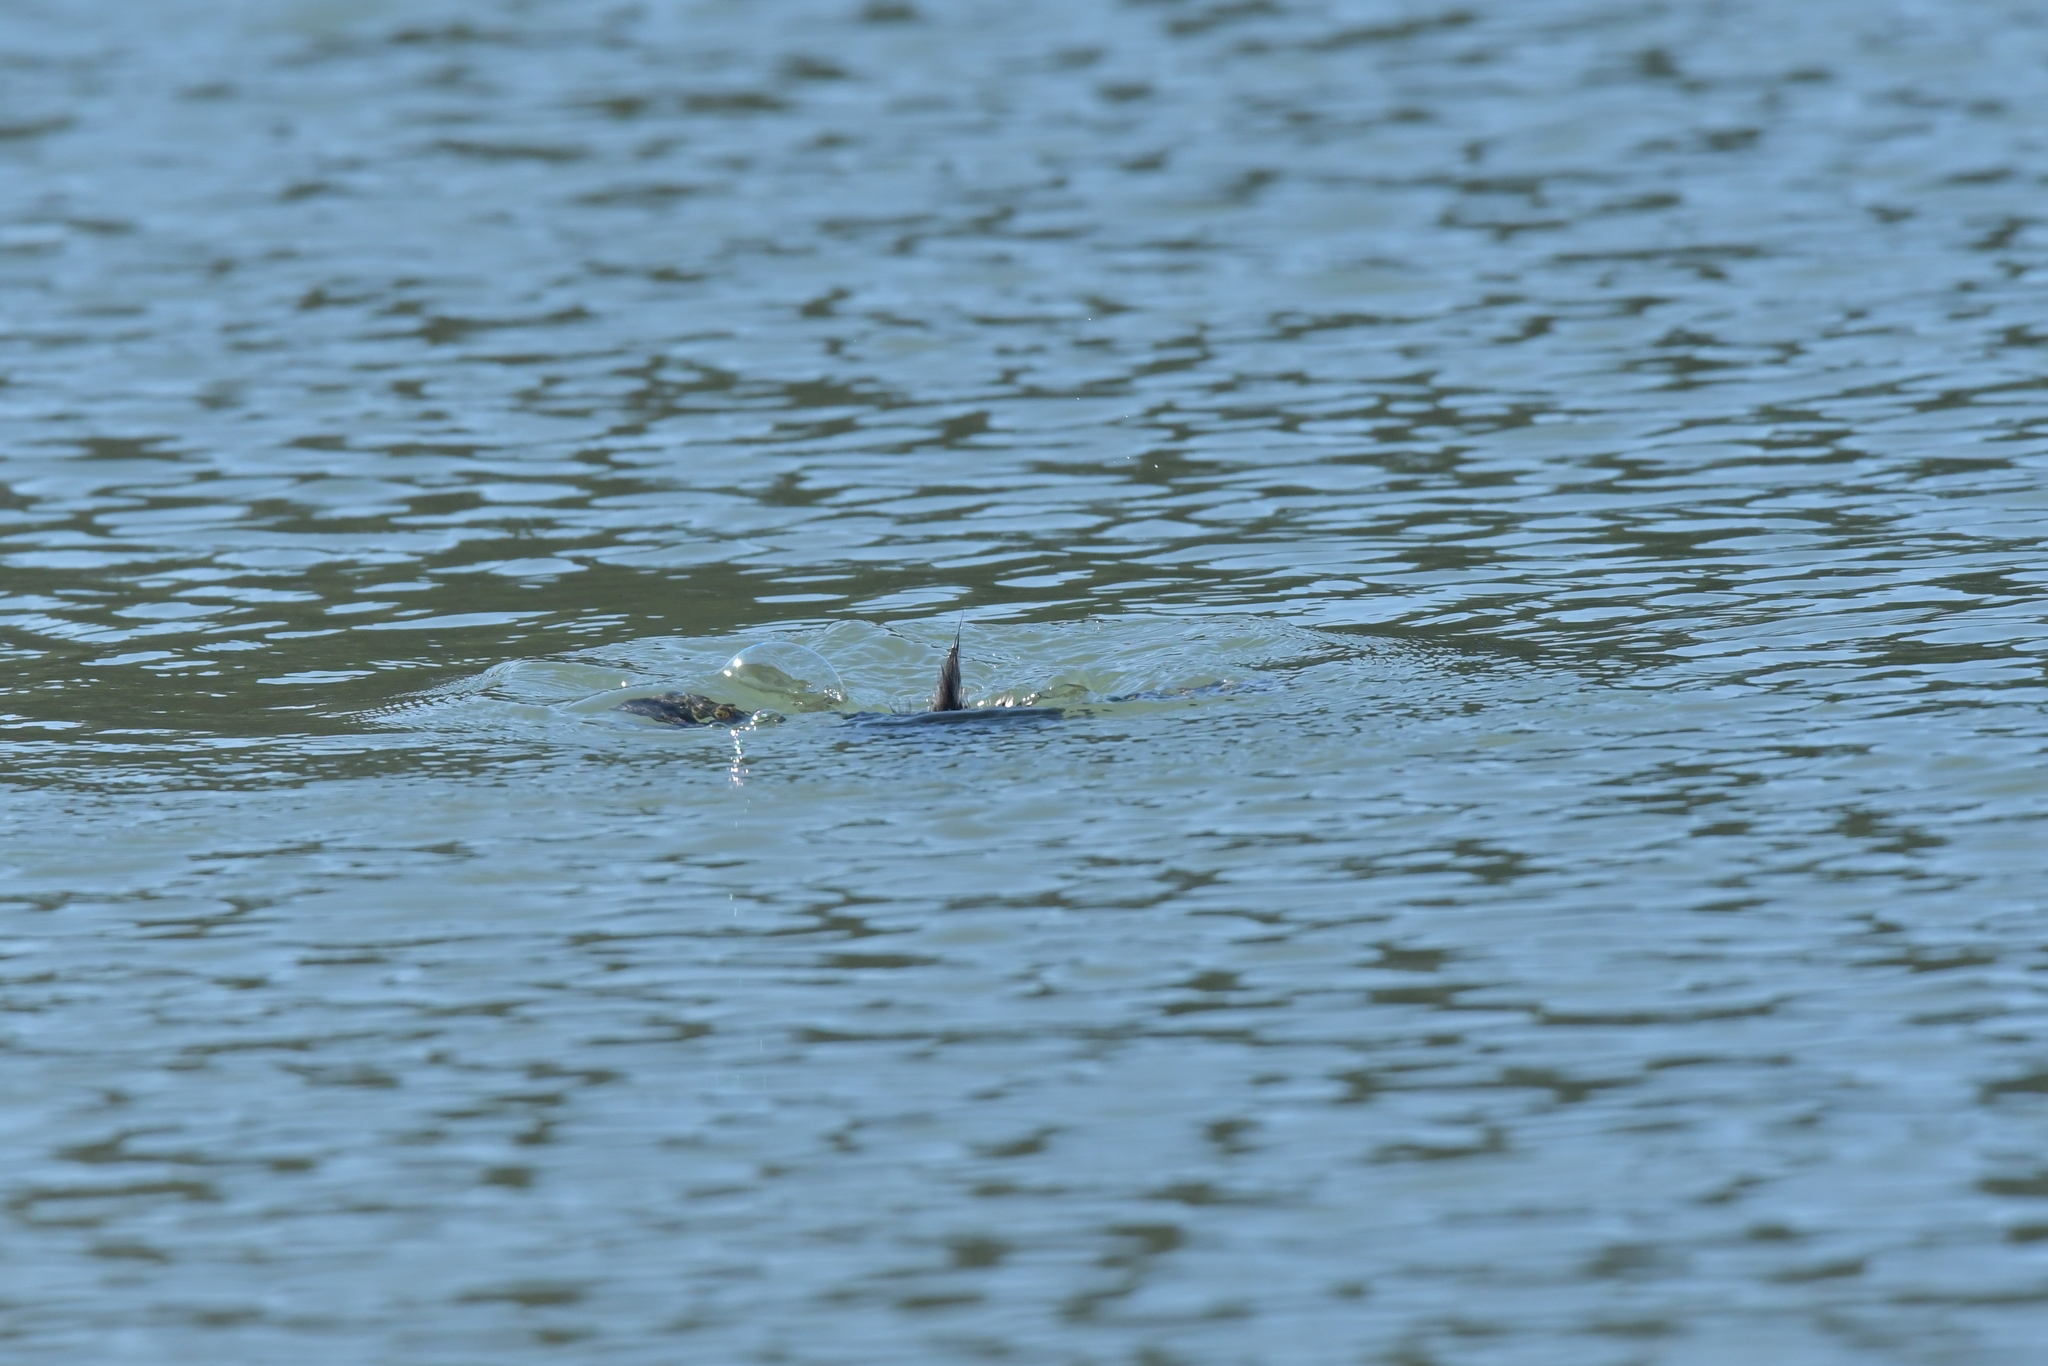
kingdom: Animalia
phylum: Chordata
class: Aves
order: Podicipediformes
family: Podicipedidae
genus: Poliocephalus
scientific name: Poliocephalus rufopectus
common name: New zealand grebe
